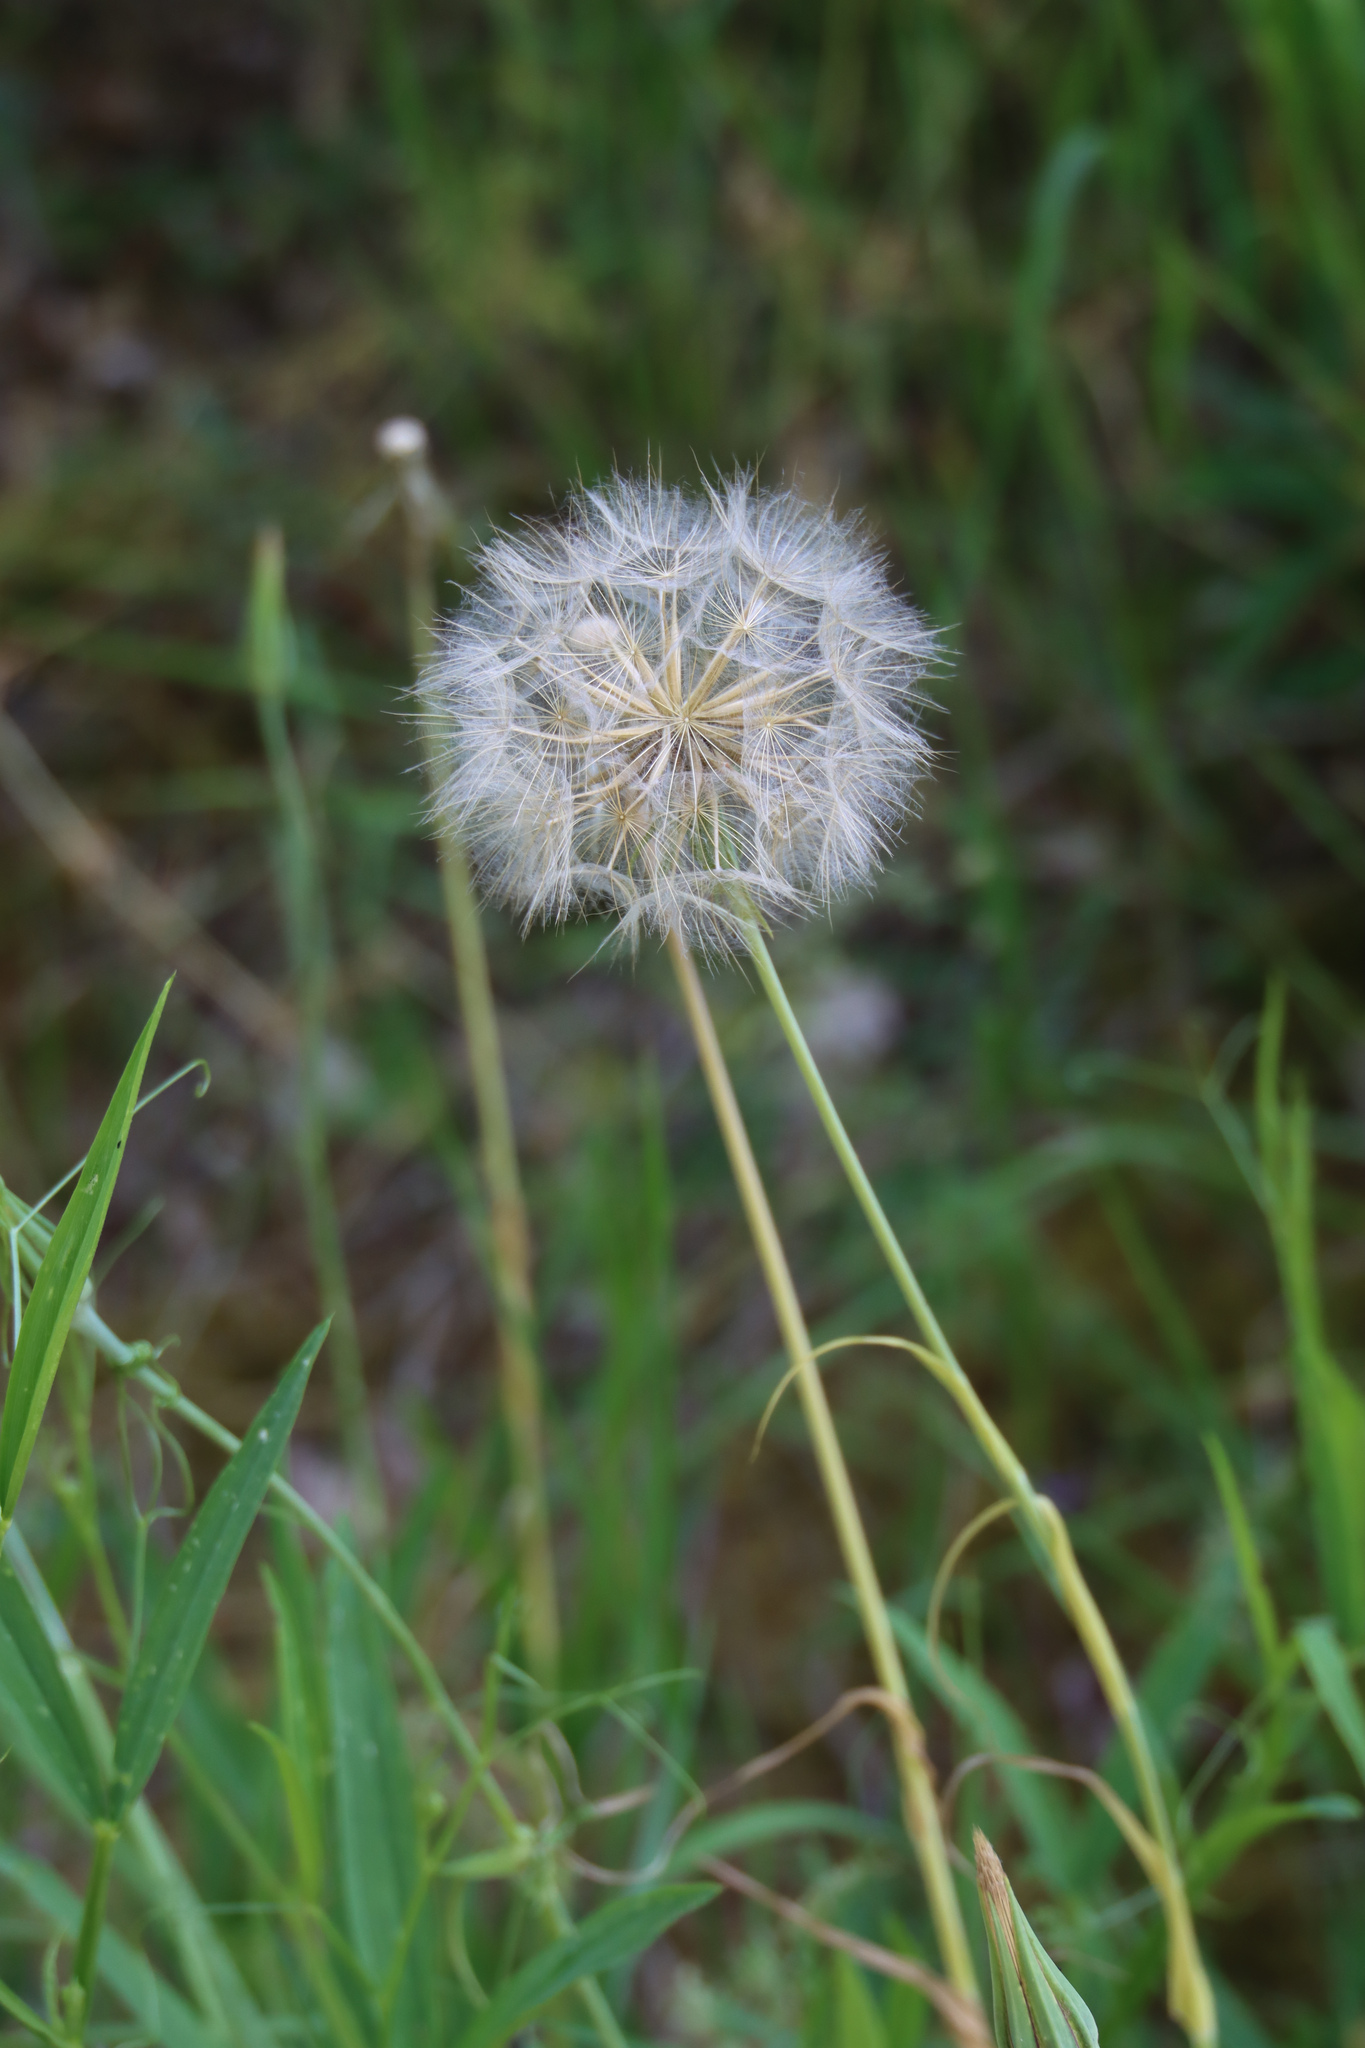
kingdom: Plantae
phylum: Tracheophyta
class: Magnoliopsida
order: Asterales
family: Asteraceae
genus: Tragopogon
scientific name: Tragopogon pratensis
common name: Goat's-beard
